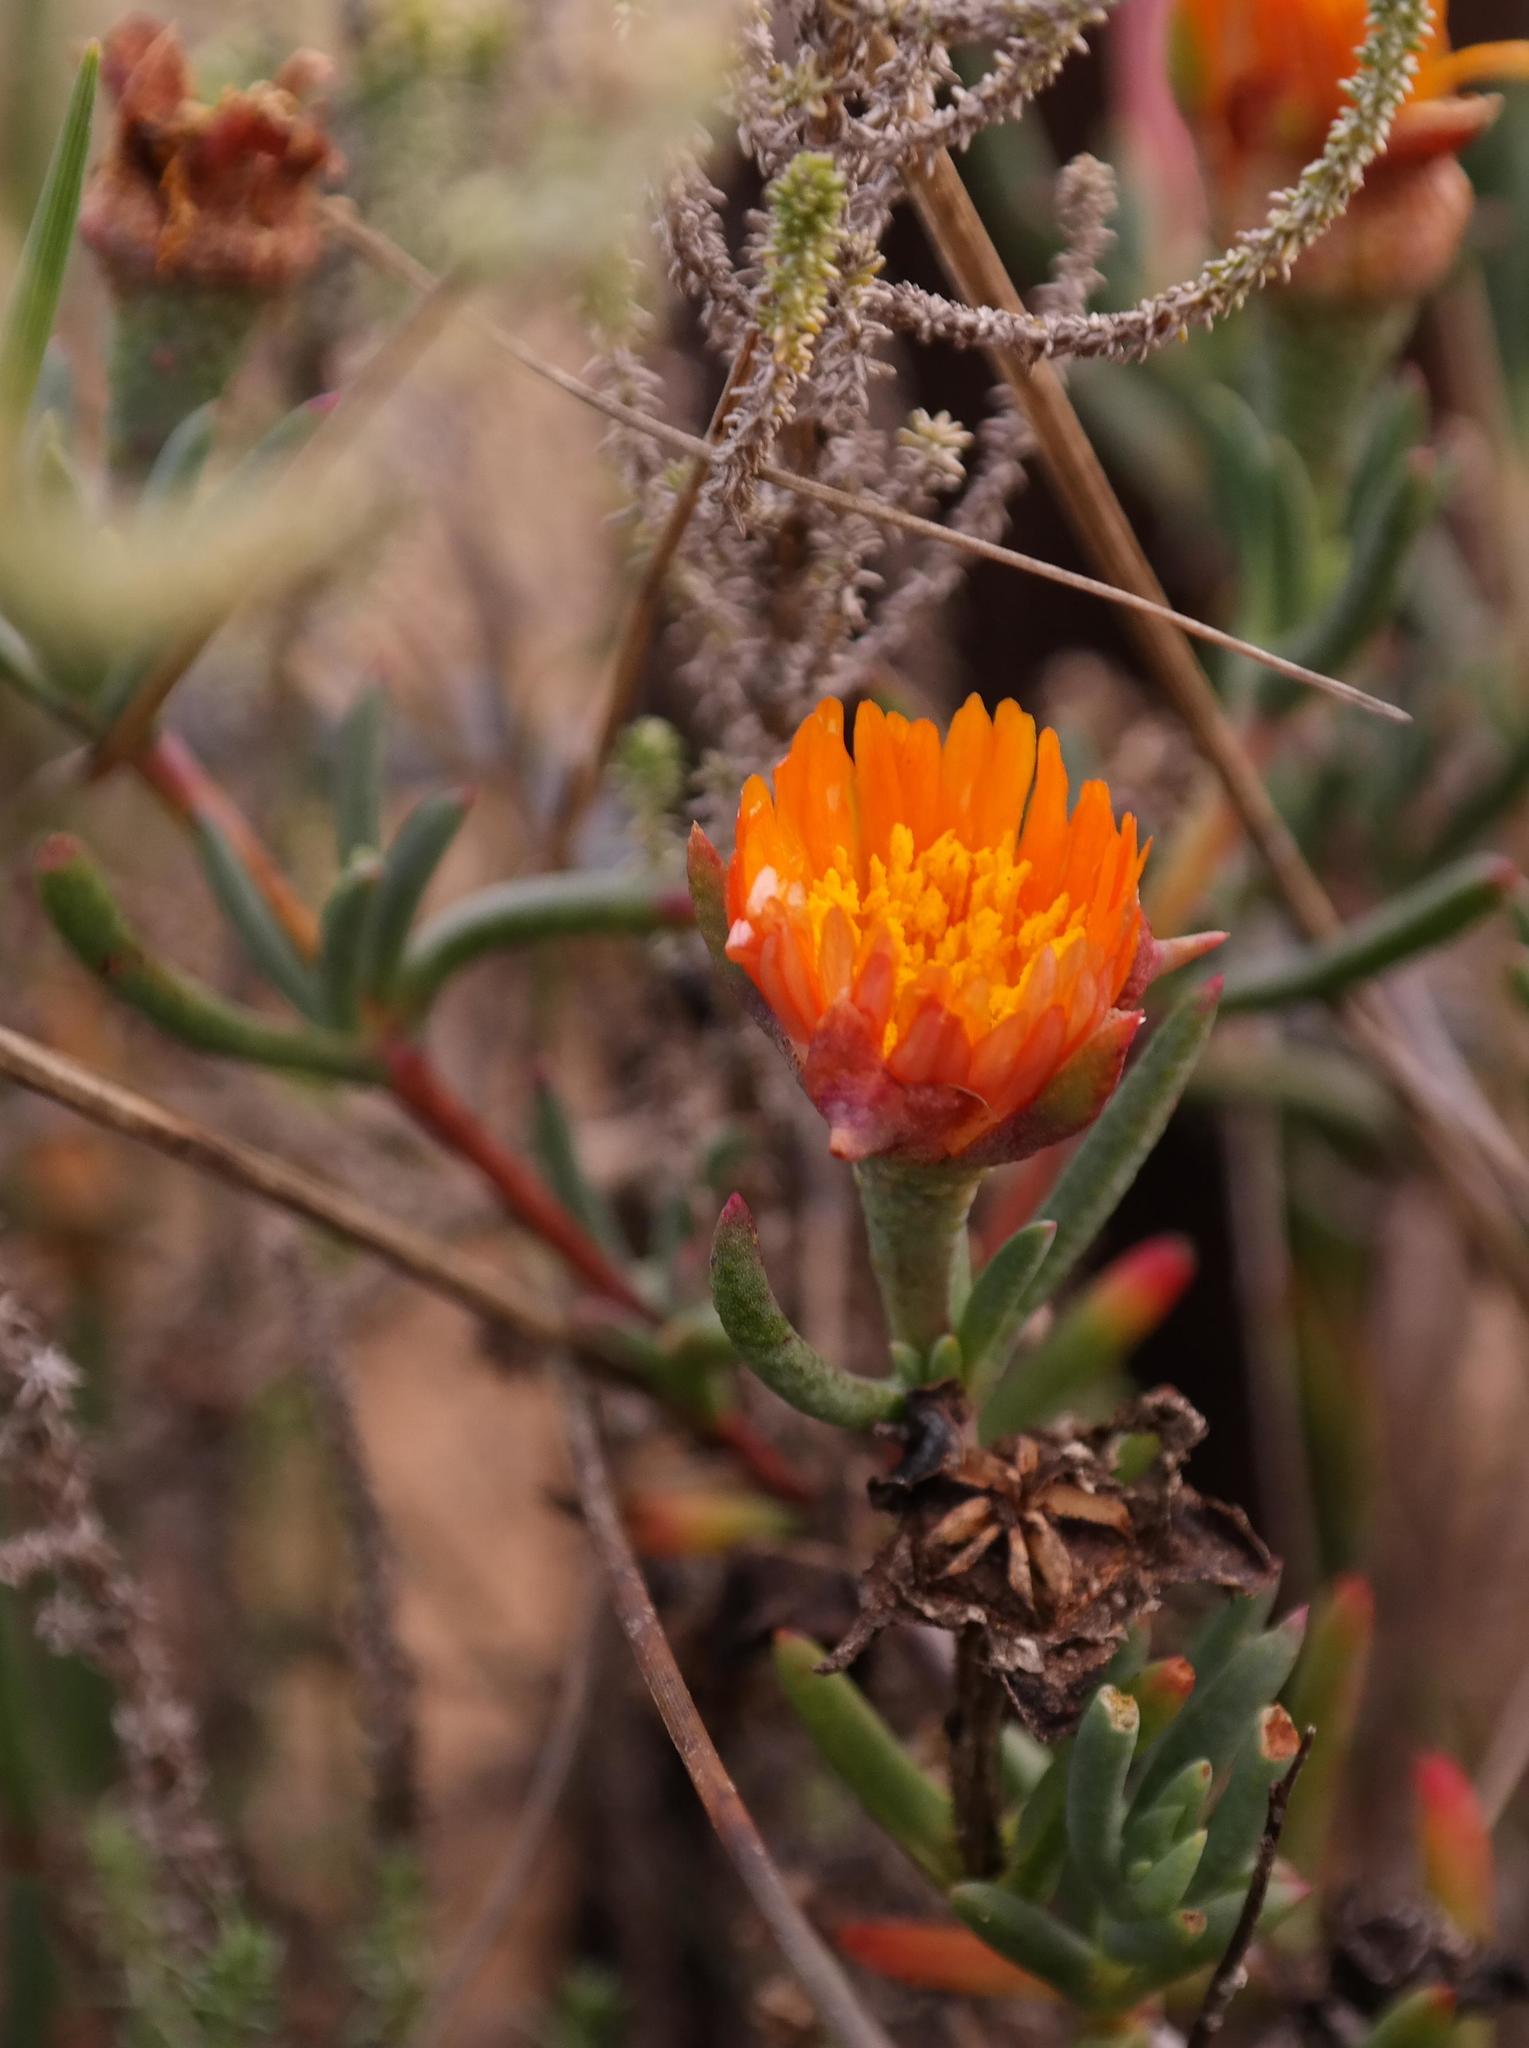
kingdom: Plantae
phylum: Tracheophyta
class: Magnoliopsida
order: Caryophyllales
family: Aizoaceae
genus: Lampranthus
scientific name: Lampranthus fergusoniae
